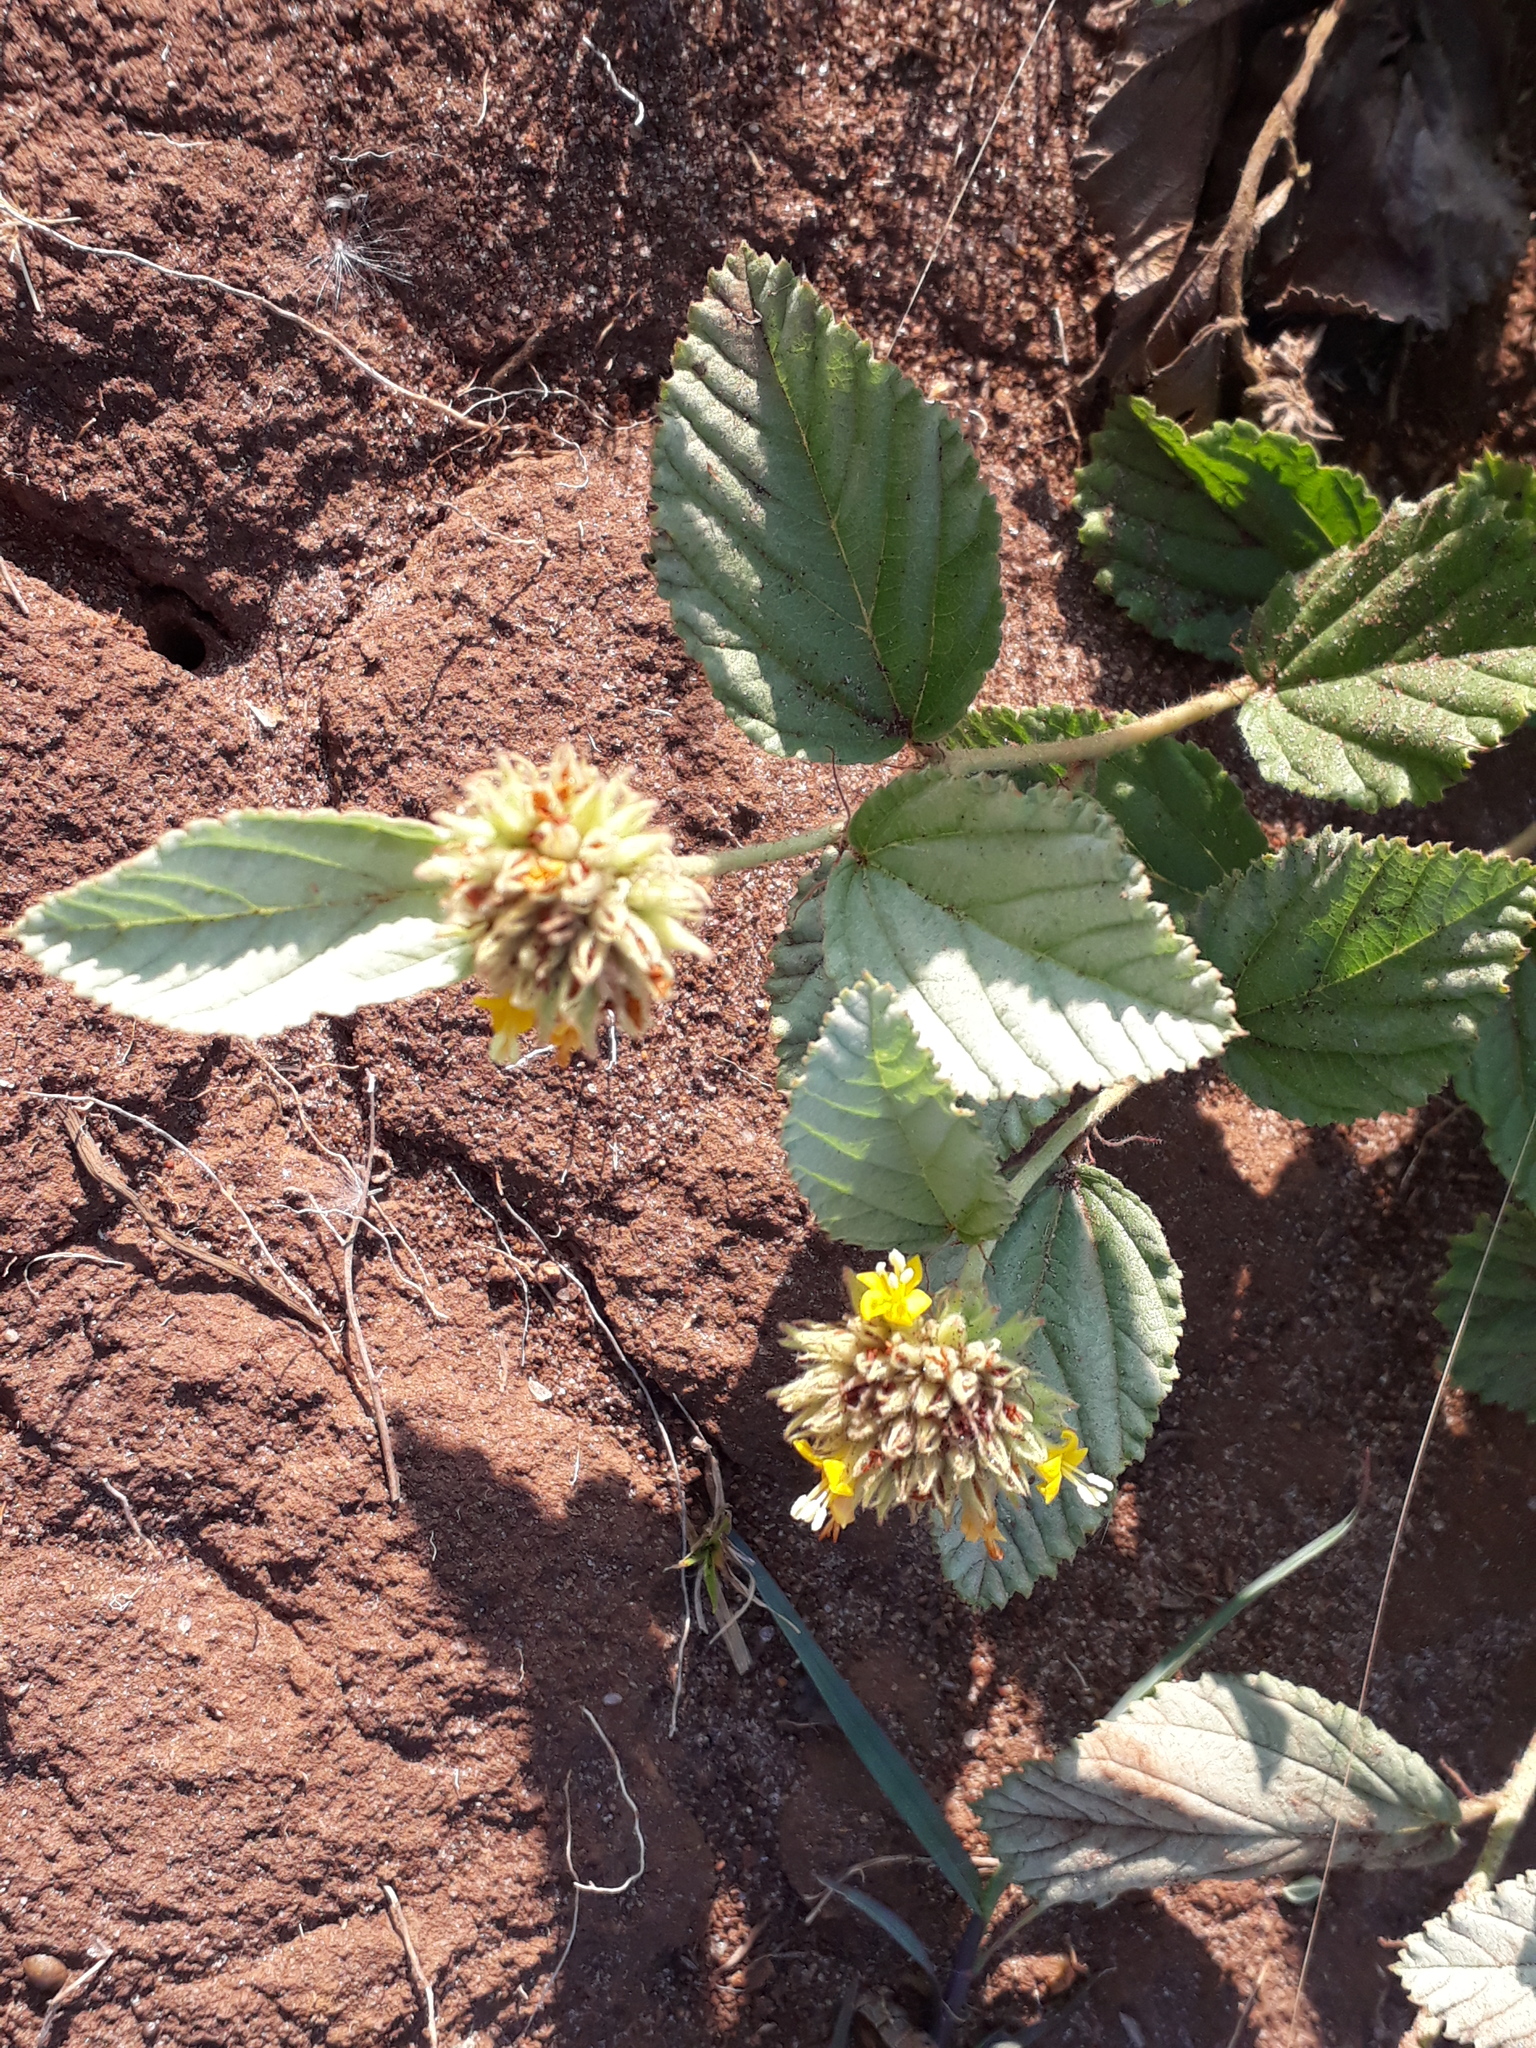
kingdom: Plantae
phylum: Tracheophyta
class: Magnoliopsida
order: Malvales
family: Malvaceae
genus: Waltheria
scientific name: Waltheria communis
